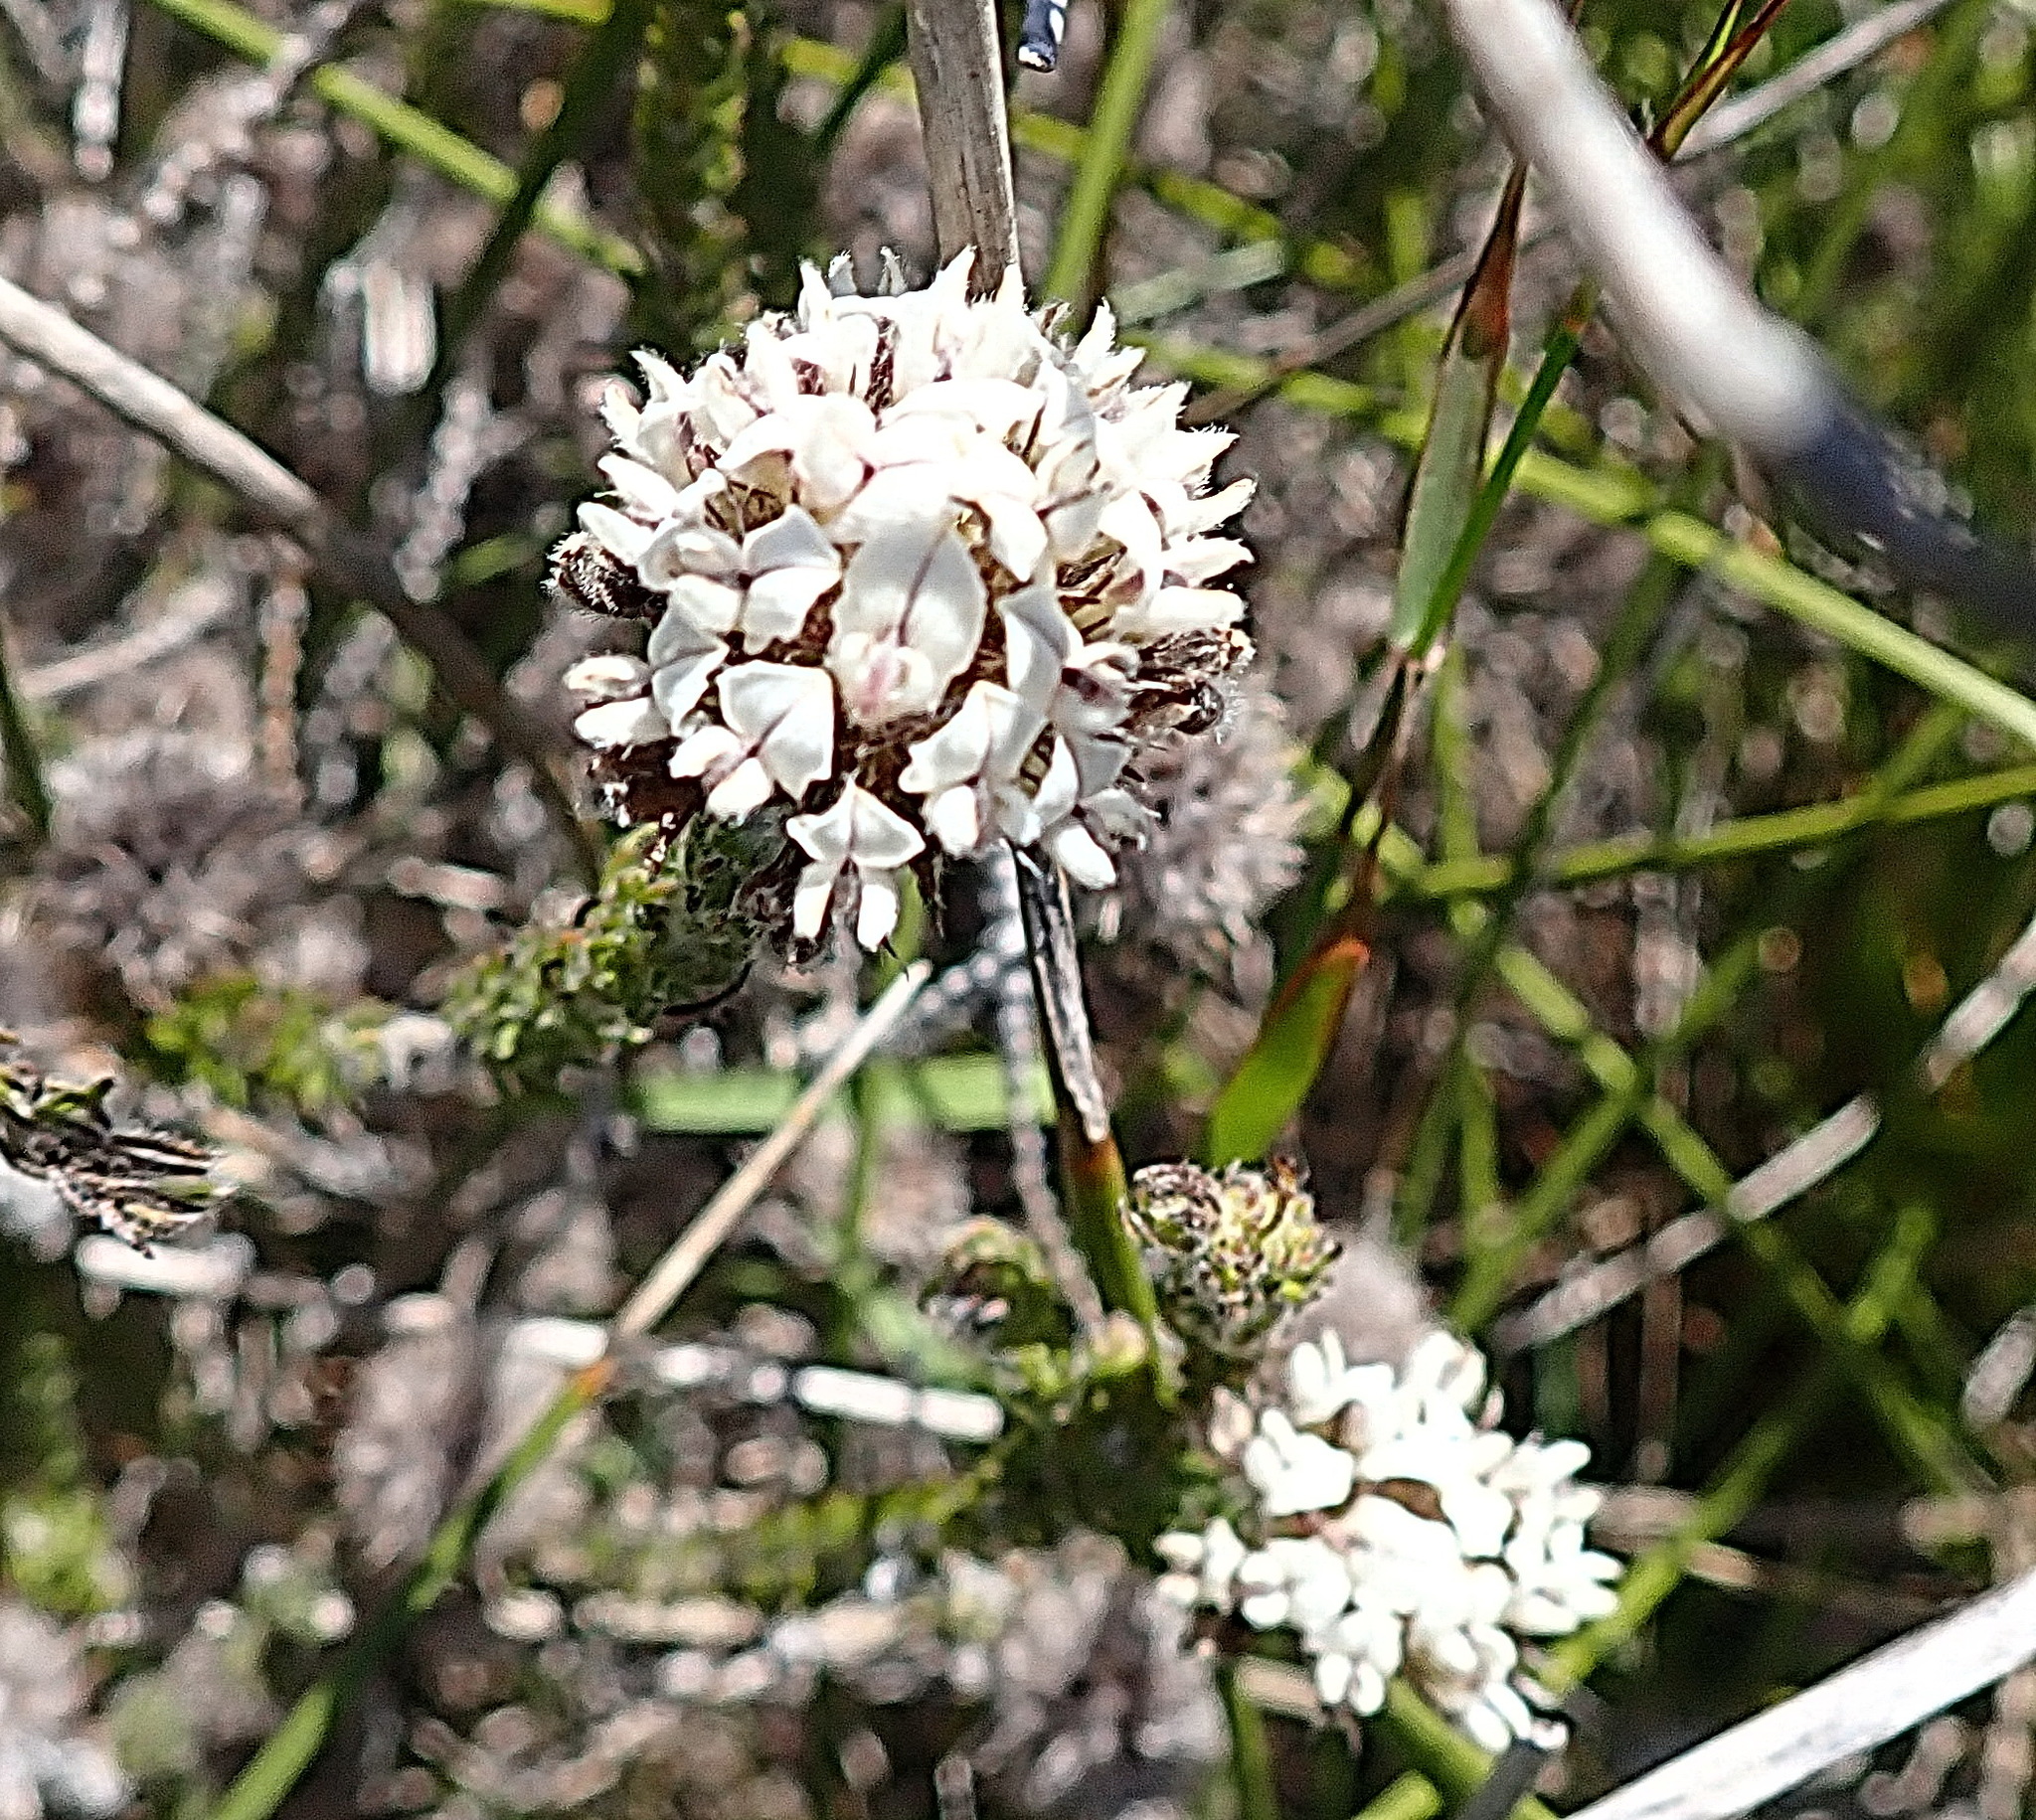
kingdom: Plantae
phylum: Tracheophyta
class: Magnoliopsida
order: Fabales
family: Fabaceae
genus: Aspalathus
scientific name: Aspalathus cerrhantha
